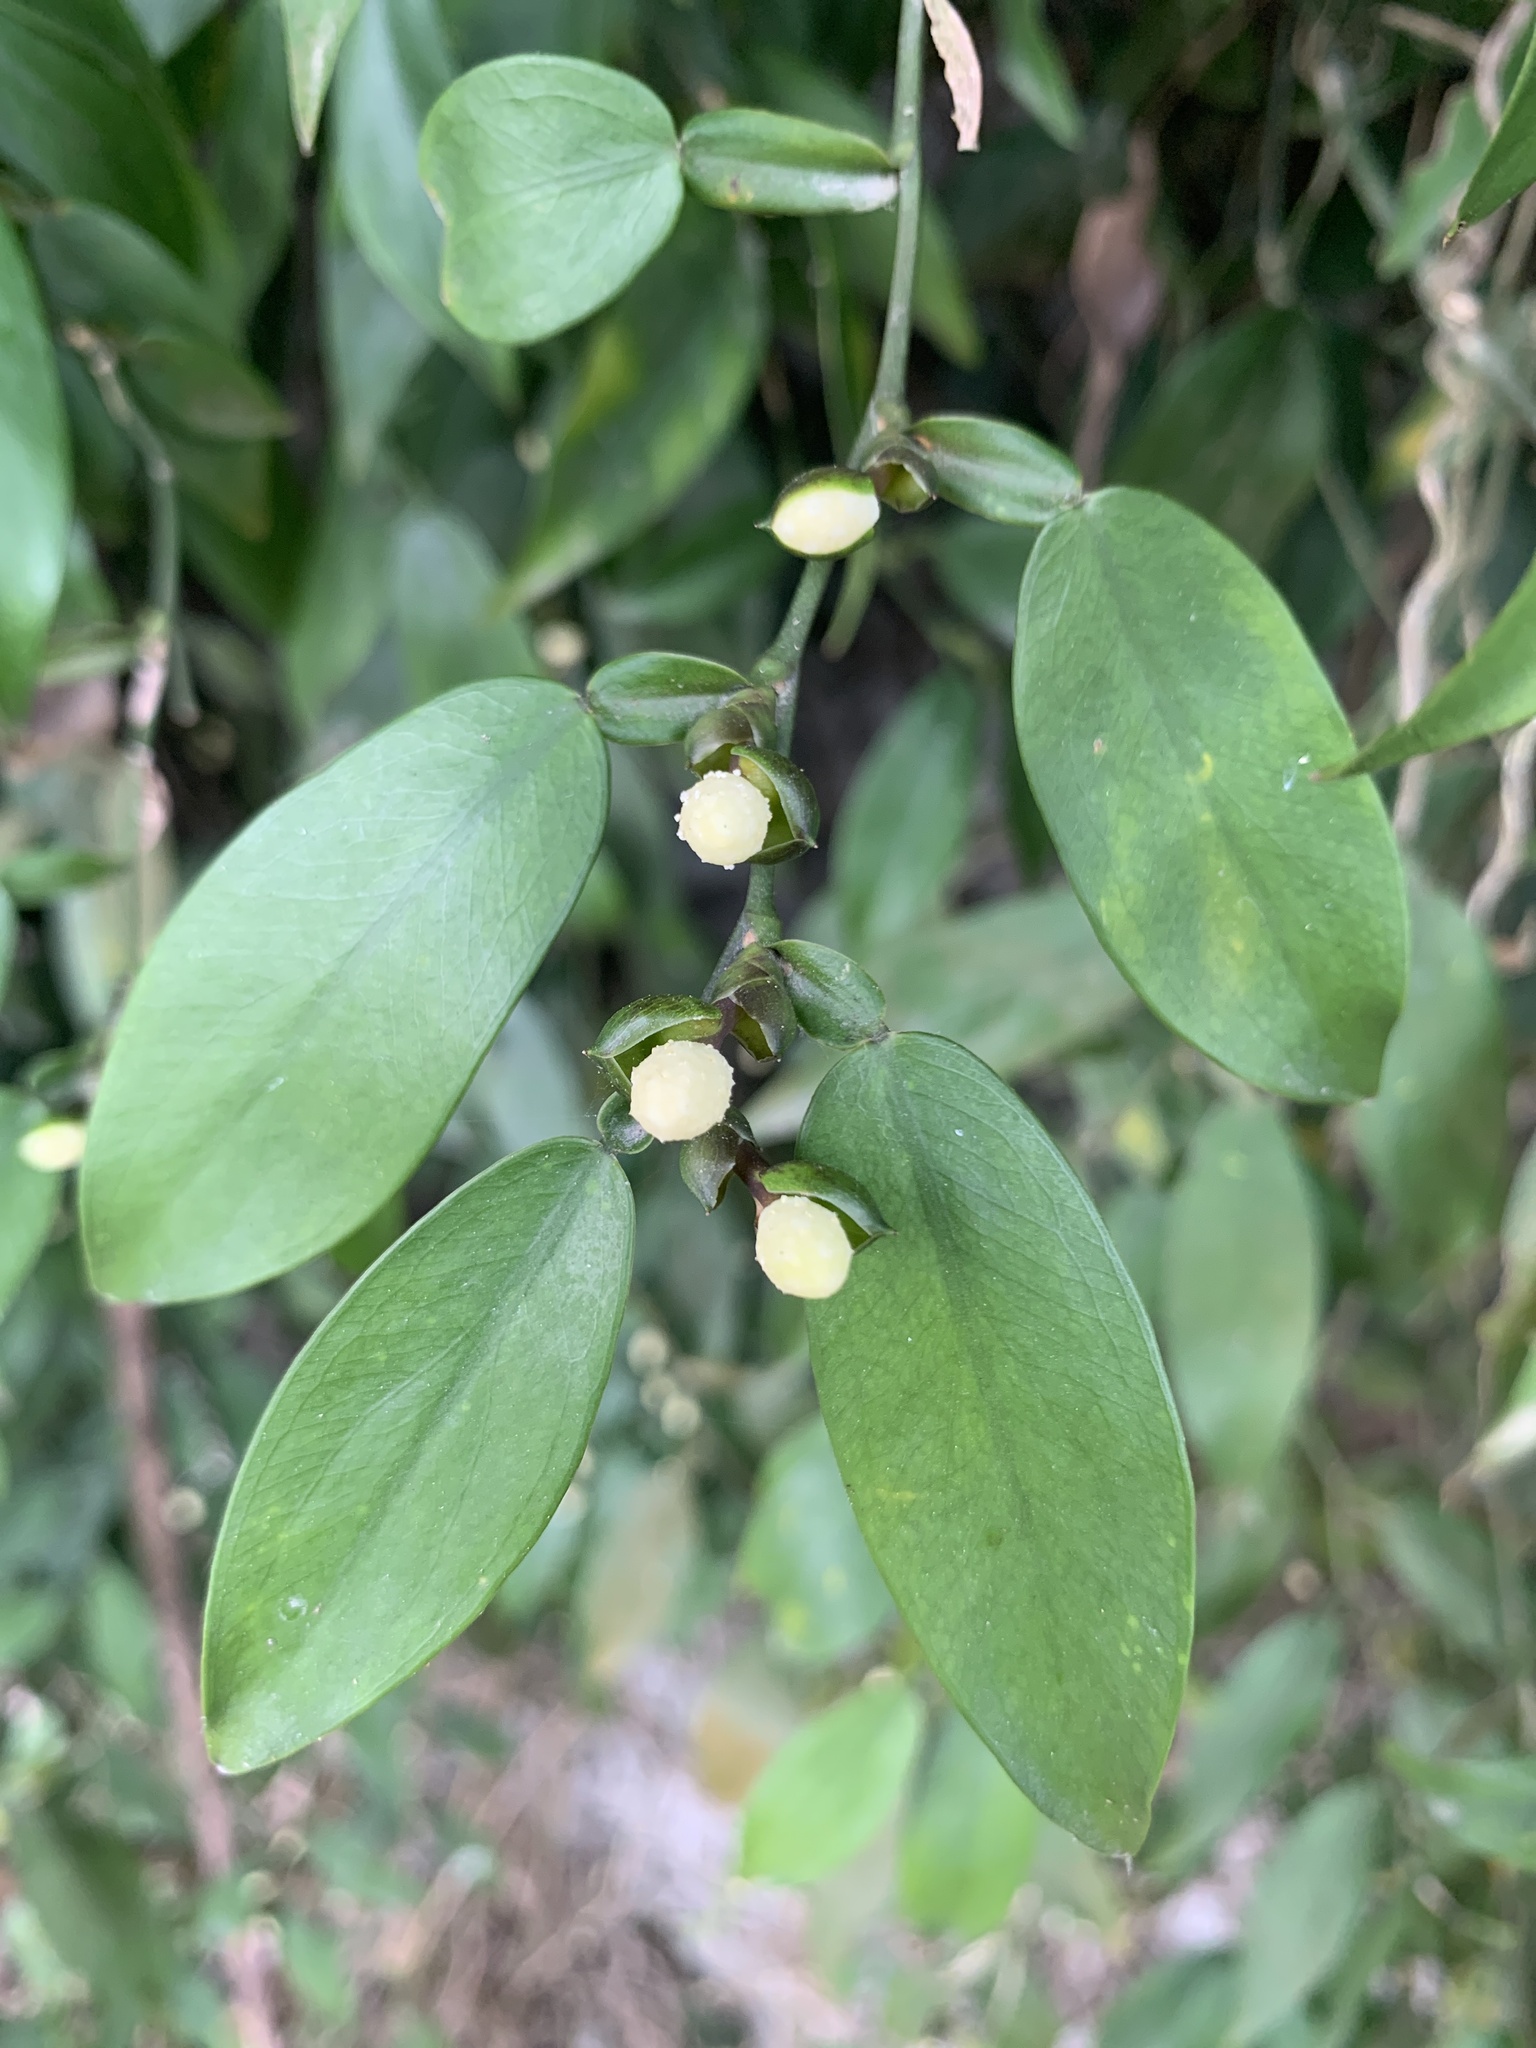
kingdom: Plantae
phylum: Tracheophyta
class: Liliopsida
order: Alismatales
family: Araceae
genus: Pothos
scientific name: Pothos chinensis
